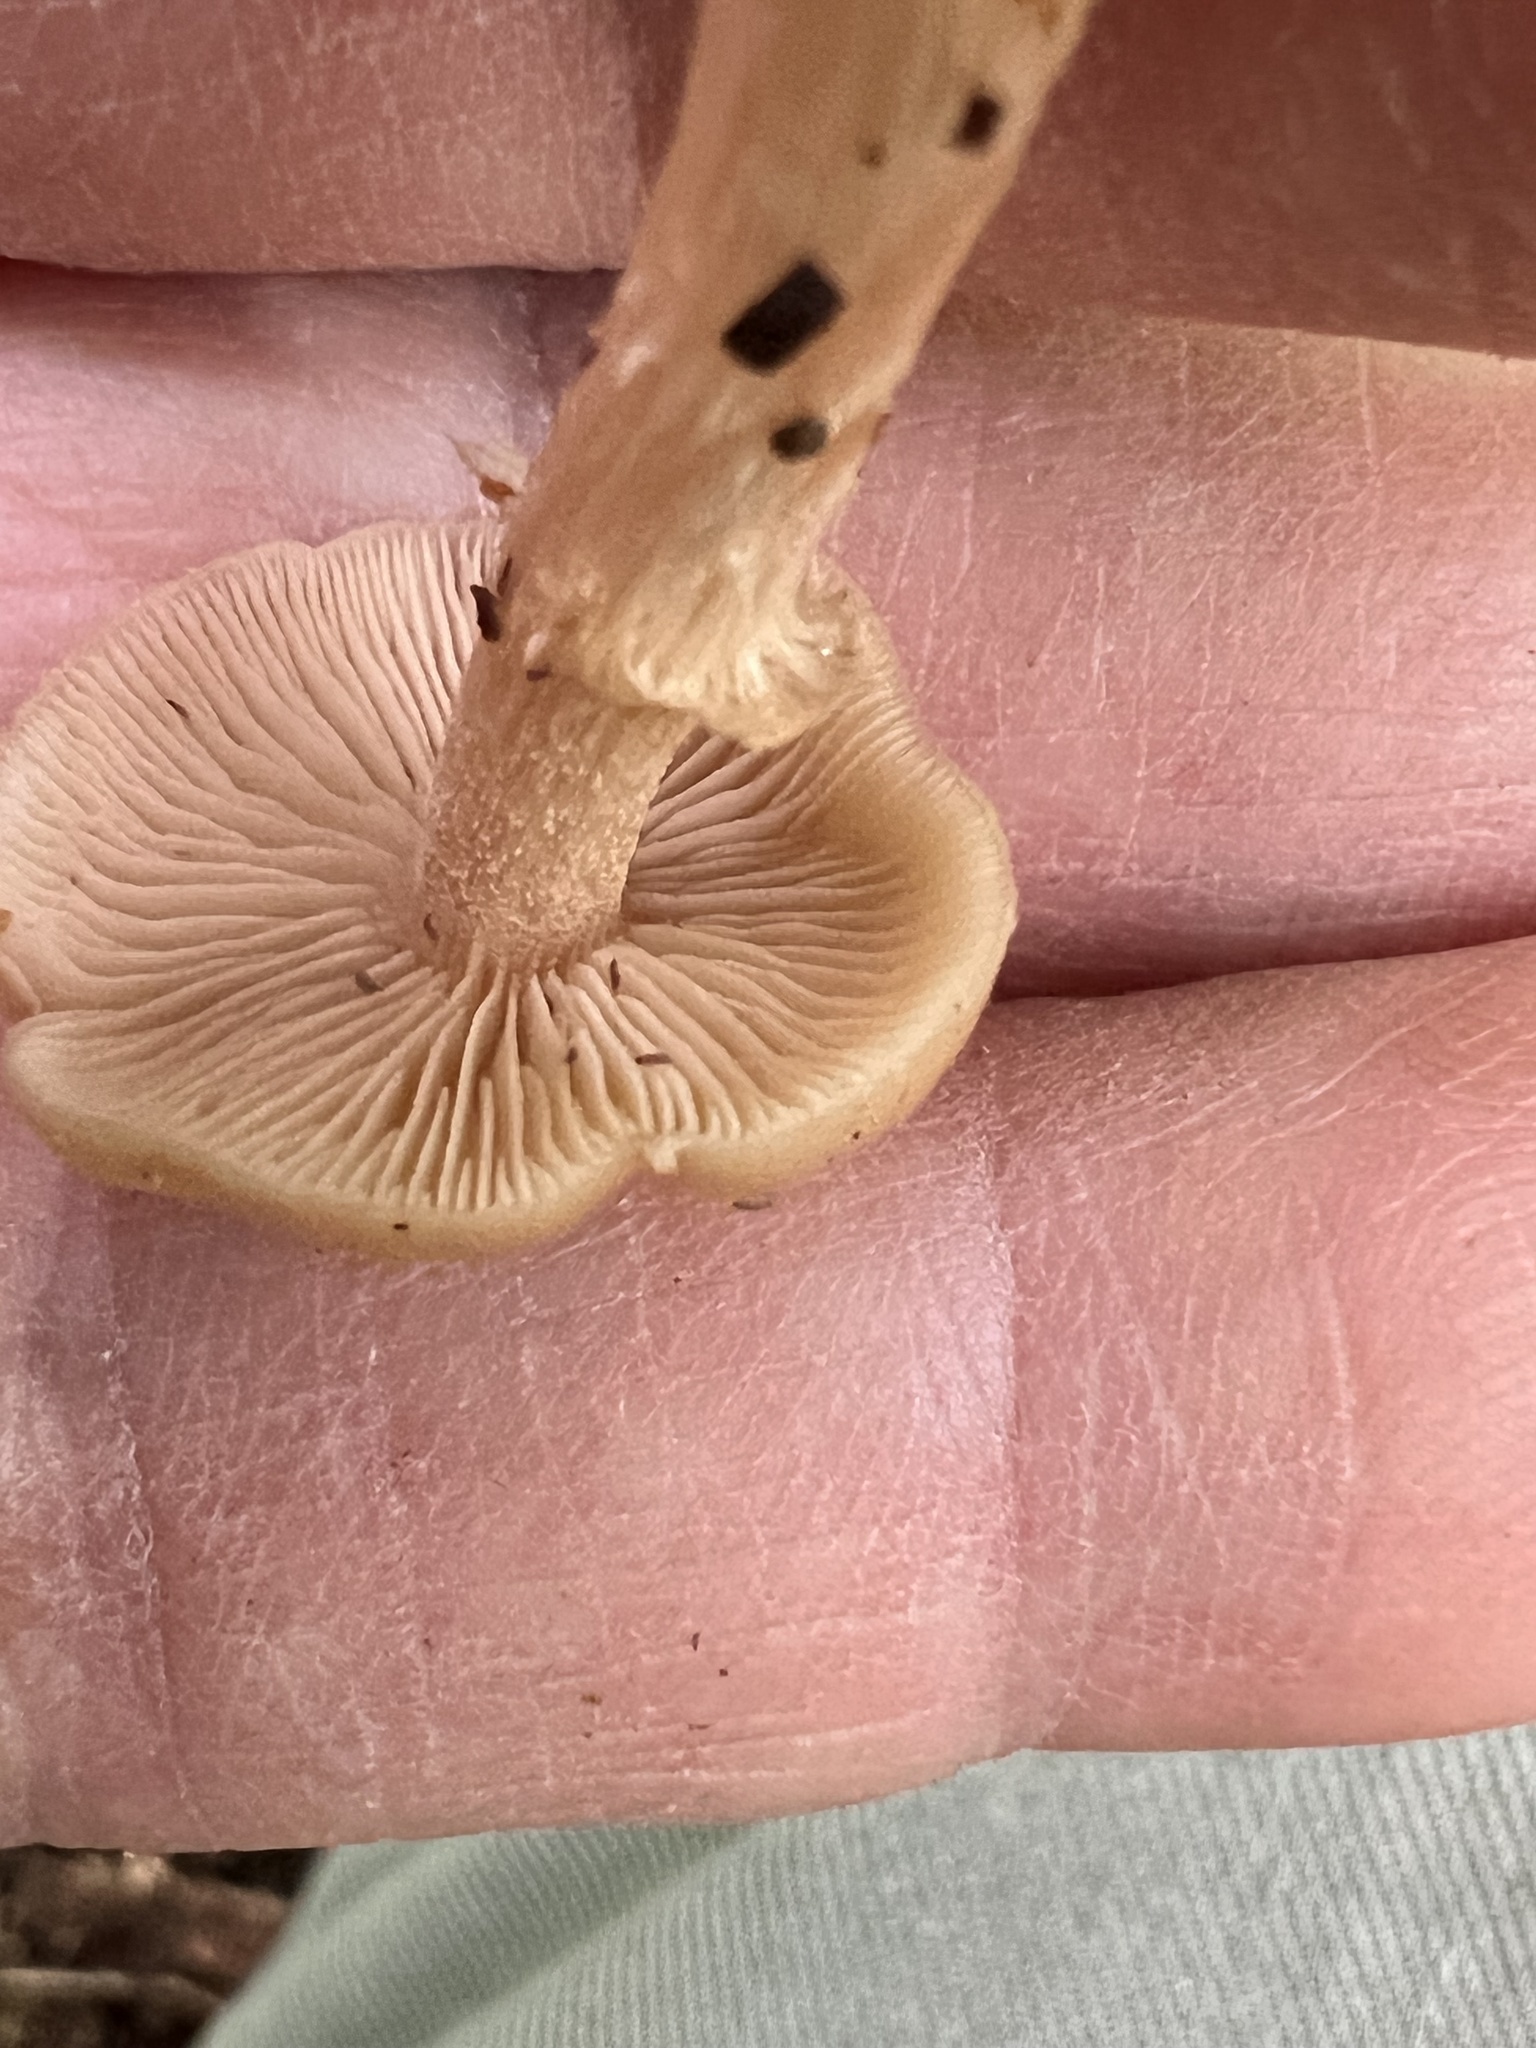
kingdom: Fungi
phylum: Basidiomycota
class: Agaricomycetes
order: Agaricales
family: Strophariaceae
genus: Kuehneromyces
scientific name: Kuehneromyces marginellus
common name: Sheathed woodtuft
